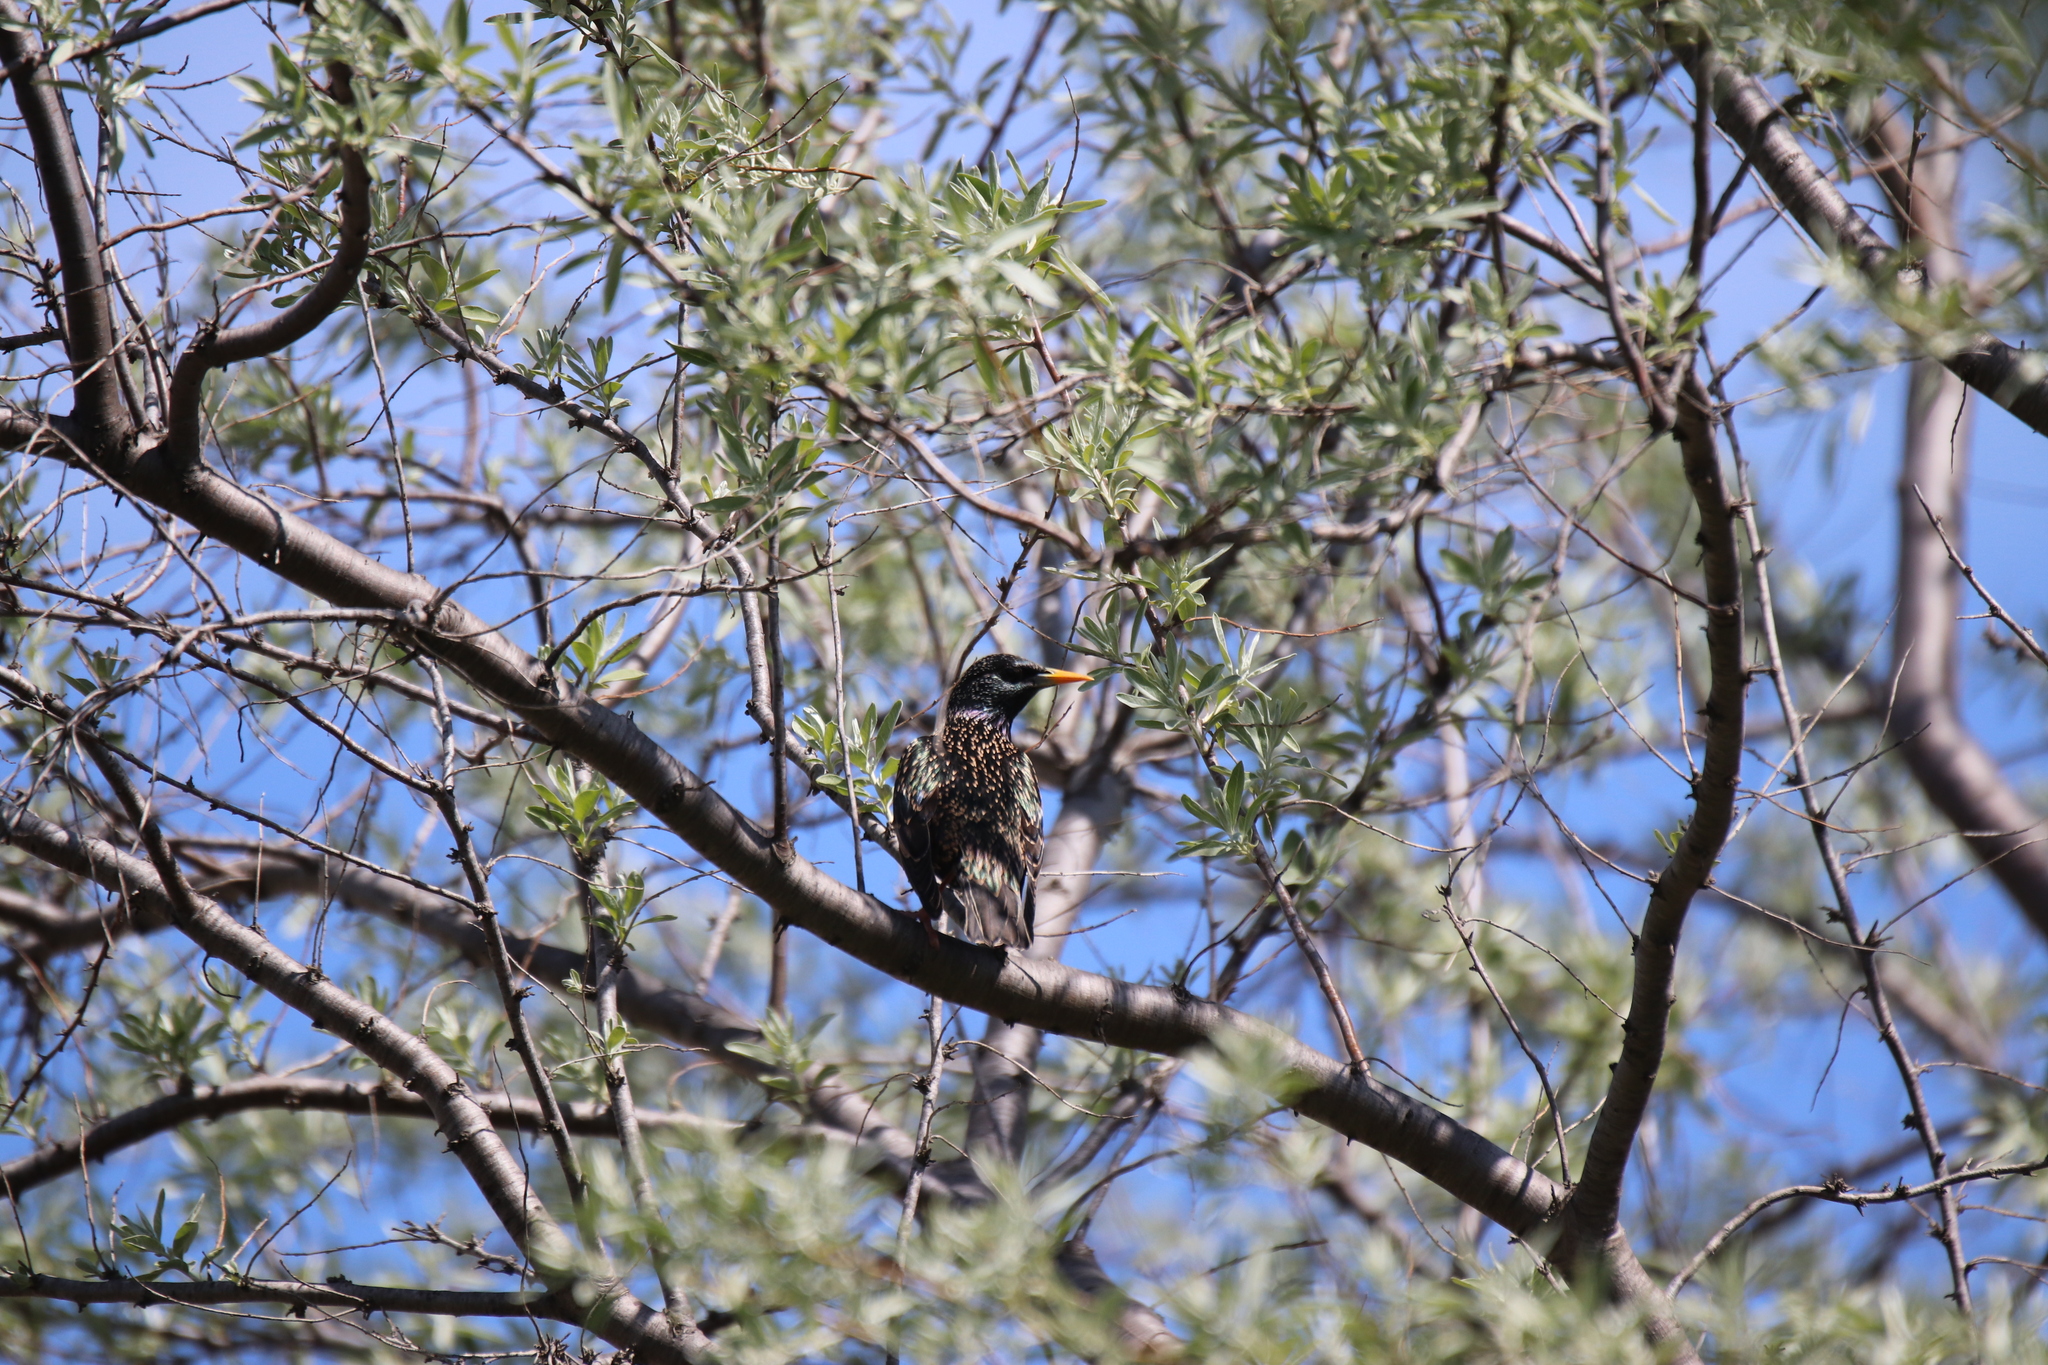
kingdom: Animalia
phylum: Chordata
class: Aves
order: Passeriformes
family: Sturnidae
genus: Sturnus
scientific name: Sturnus vulgaris
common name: Common starling
